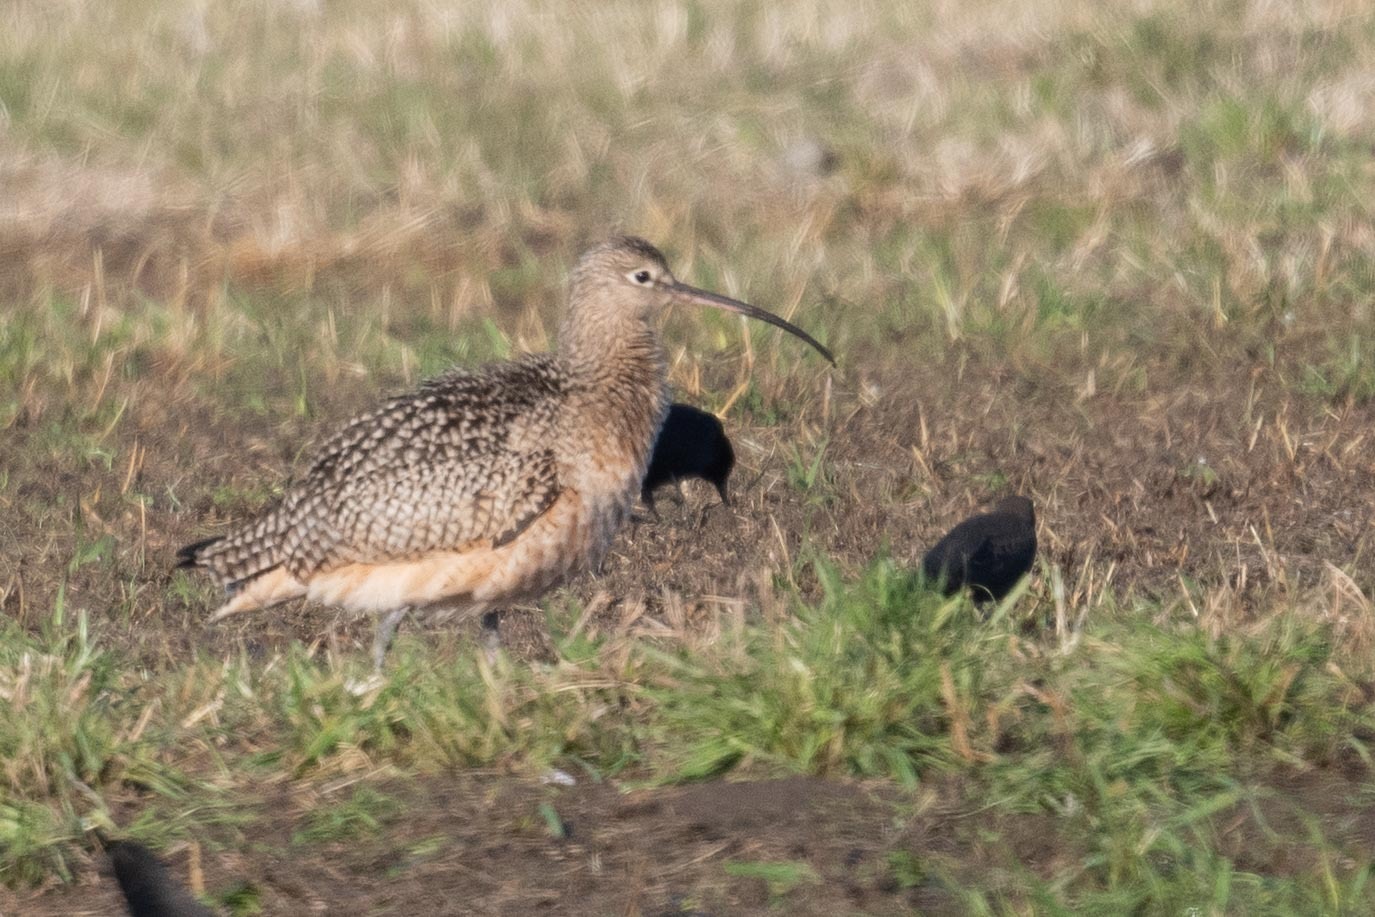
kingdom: Animalia
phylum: Chordata
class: Aves
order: Charadriiformes
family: Scolopacidae
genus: Numenius
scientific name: Numenius americanus
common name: Long-billed curlew
